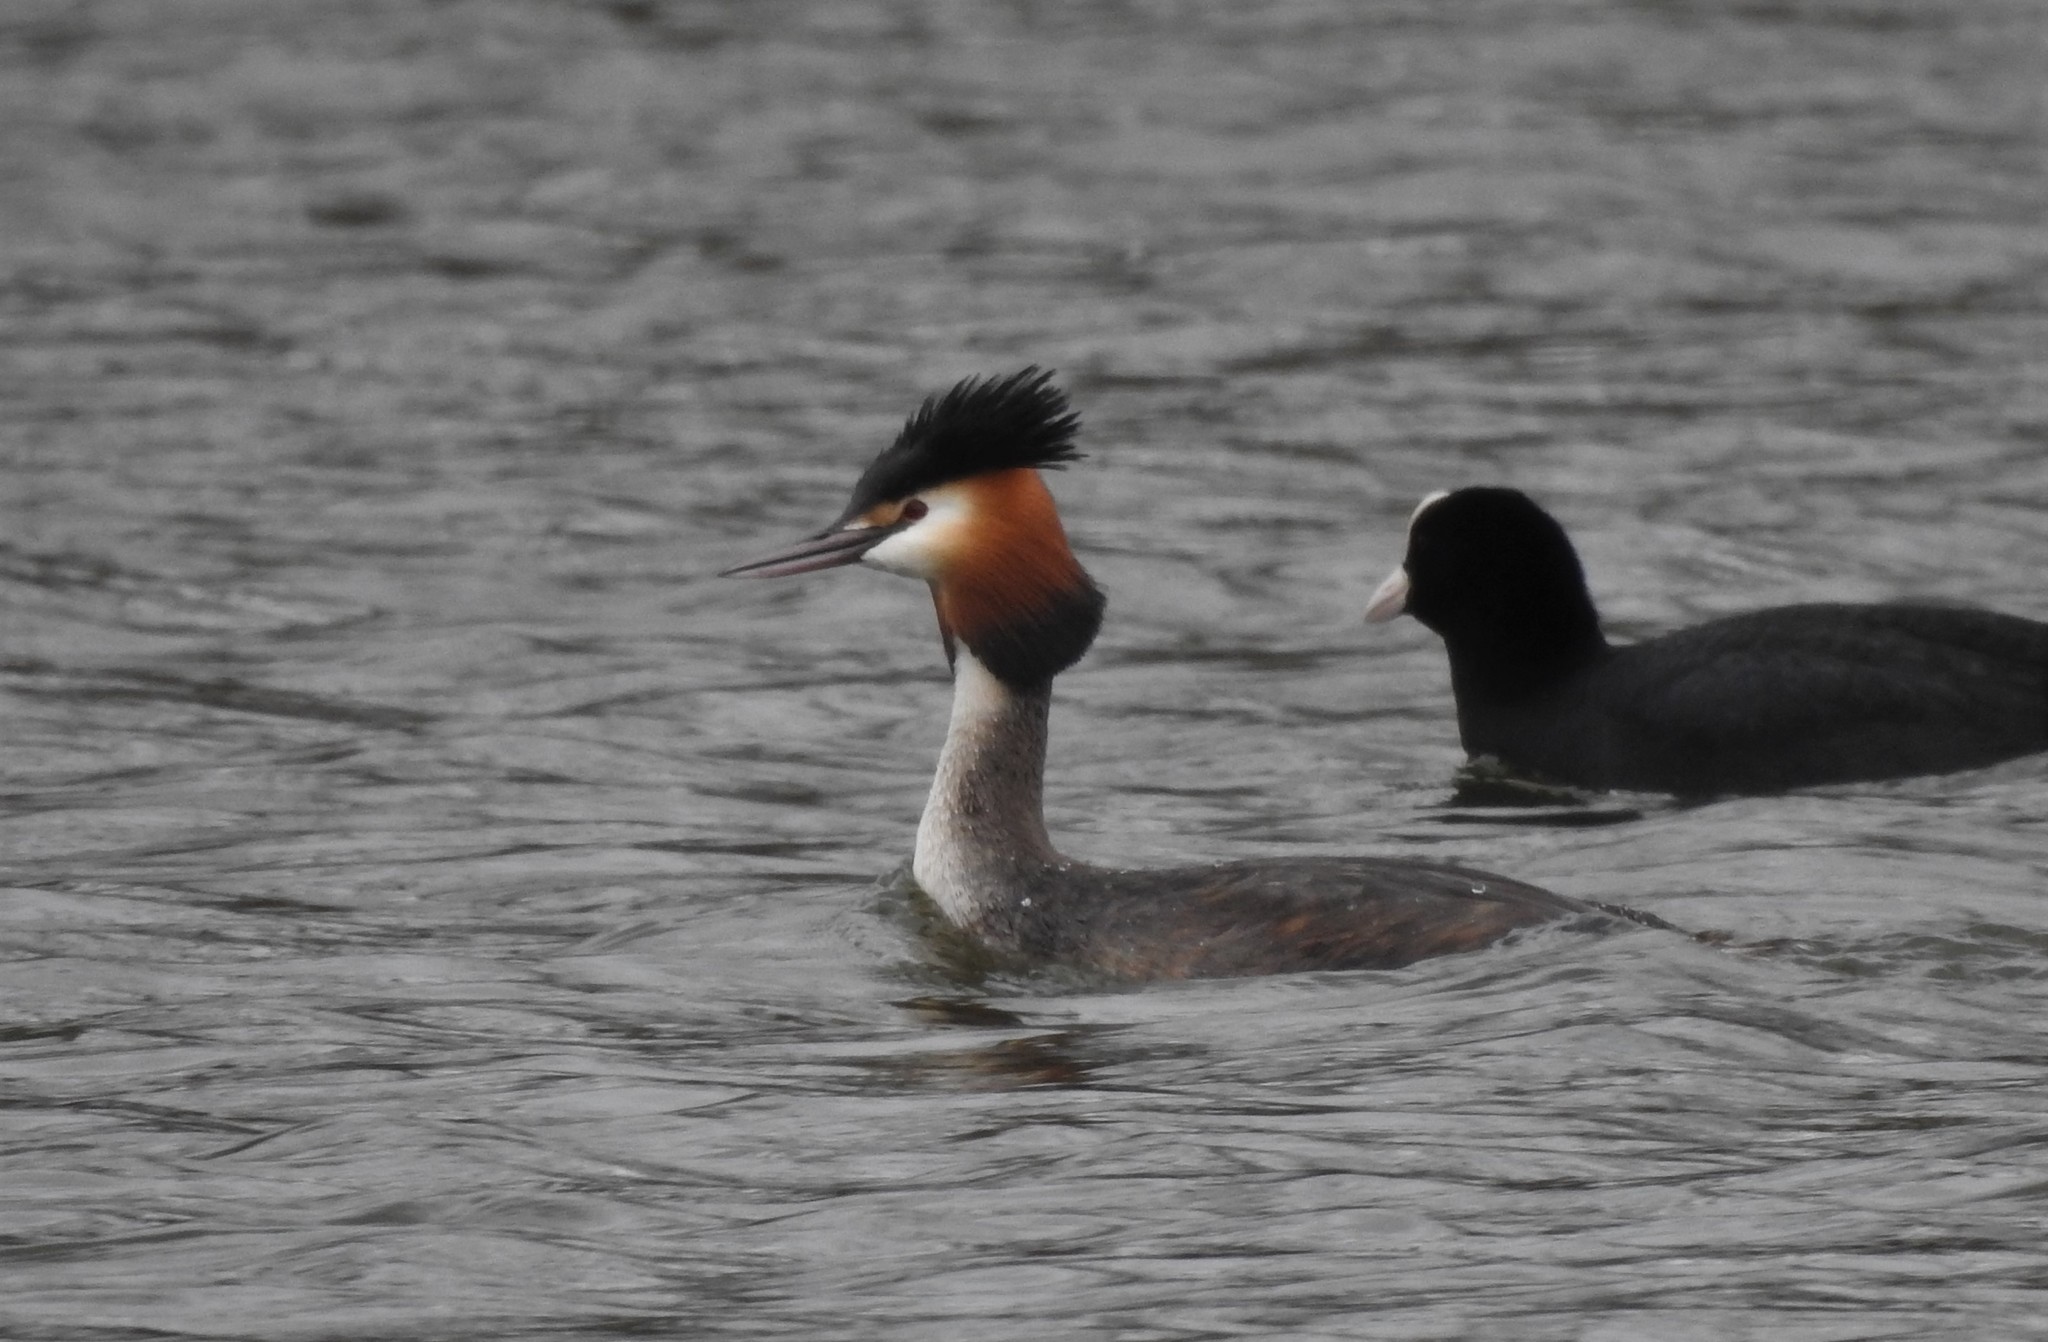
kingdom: Animalia
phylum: Chordata
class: Aves
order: Podicipediformes
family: Podicipedidae
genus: Podiceps
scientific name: Podiceps cristatus
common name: Great crested grebe
